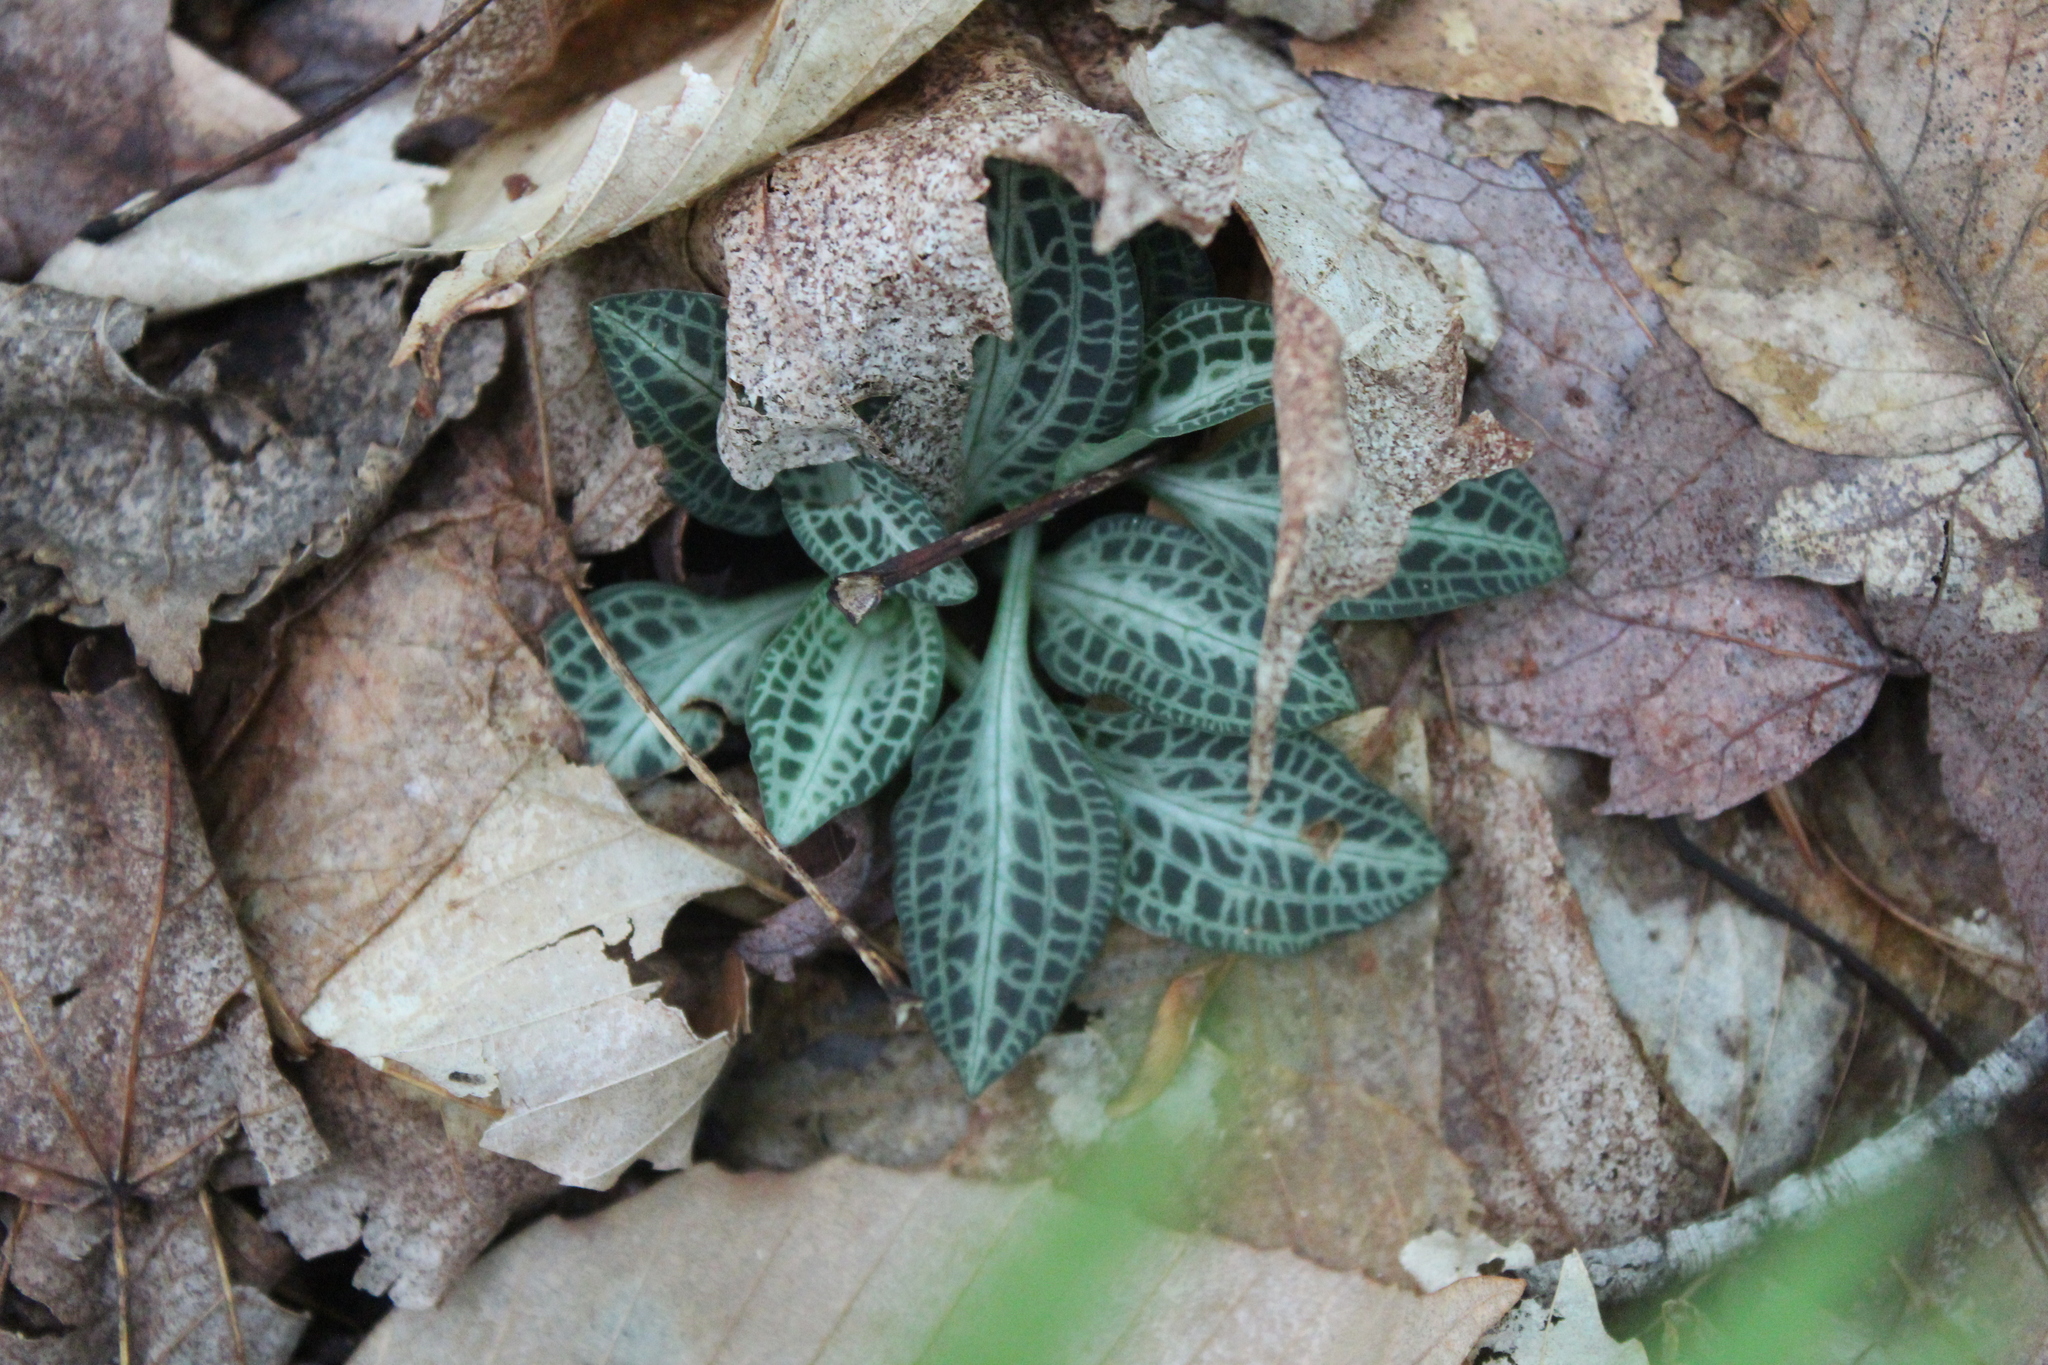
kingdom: Plantae
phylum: Tracheophyta
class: Liliopsida
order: Asparagales
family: Orchidaceae
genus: Goodyera
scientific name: Goodyera pubescens
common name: Downy rattlesnake-plantain
